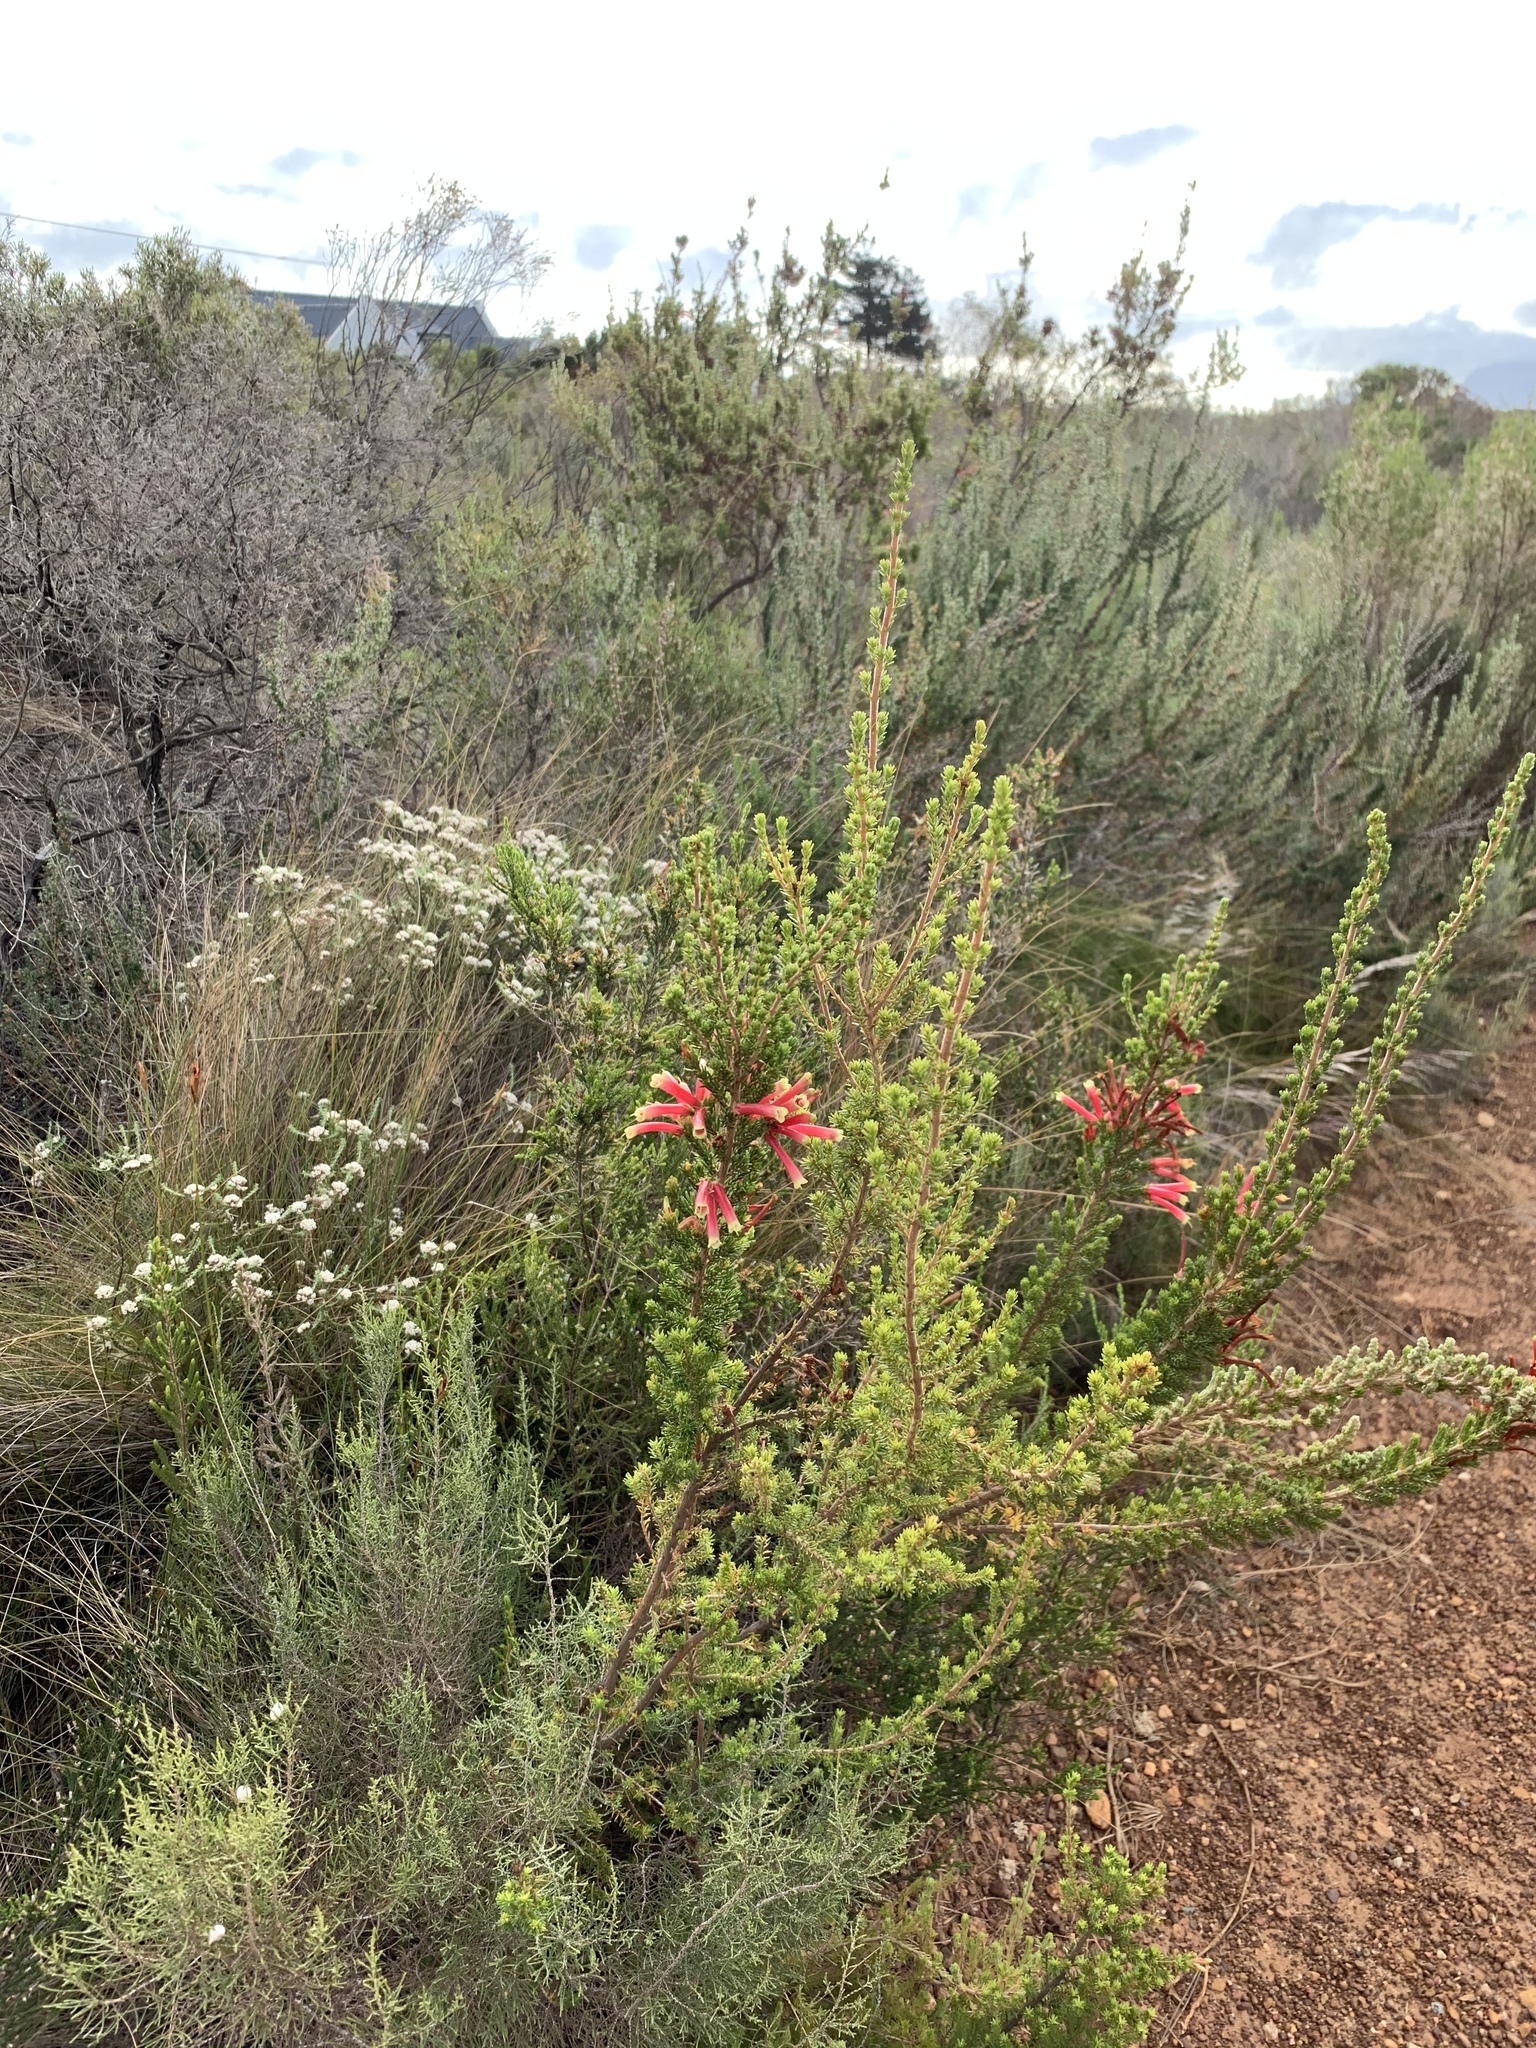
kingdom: Plantae
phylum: Tracheophyta
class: Magnoliopsida
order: Ericales
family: Ericaceae
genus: Erica
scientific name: Erica discolor
